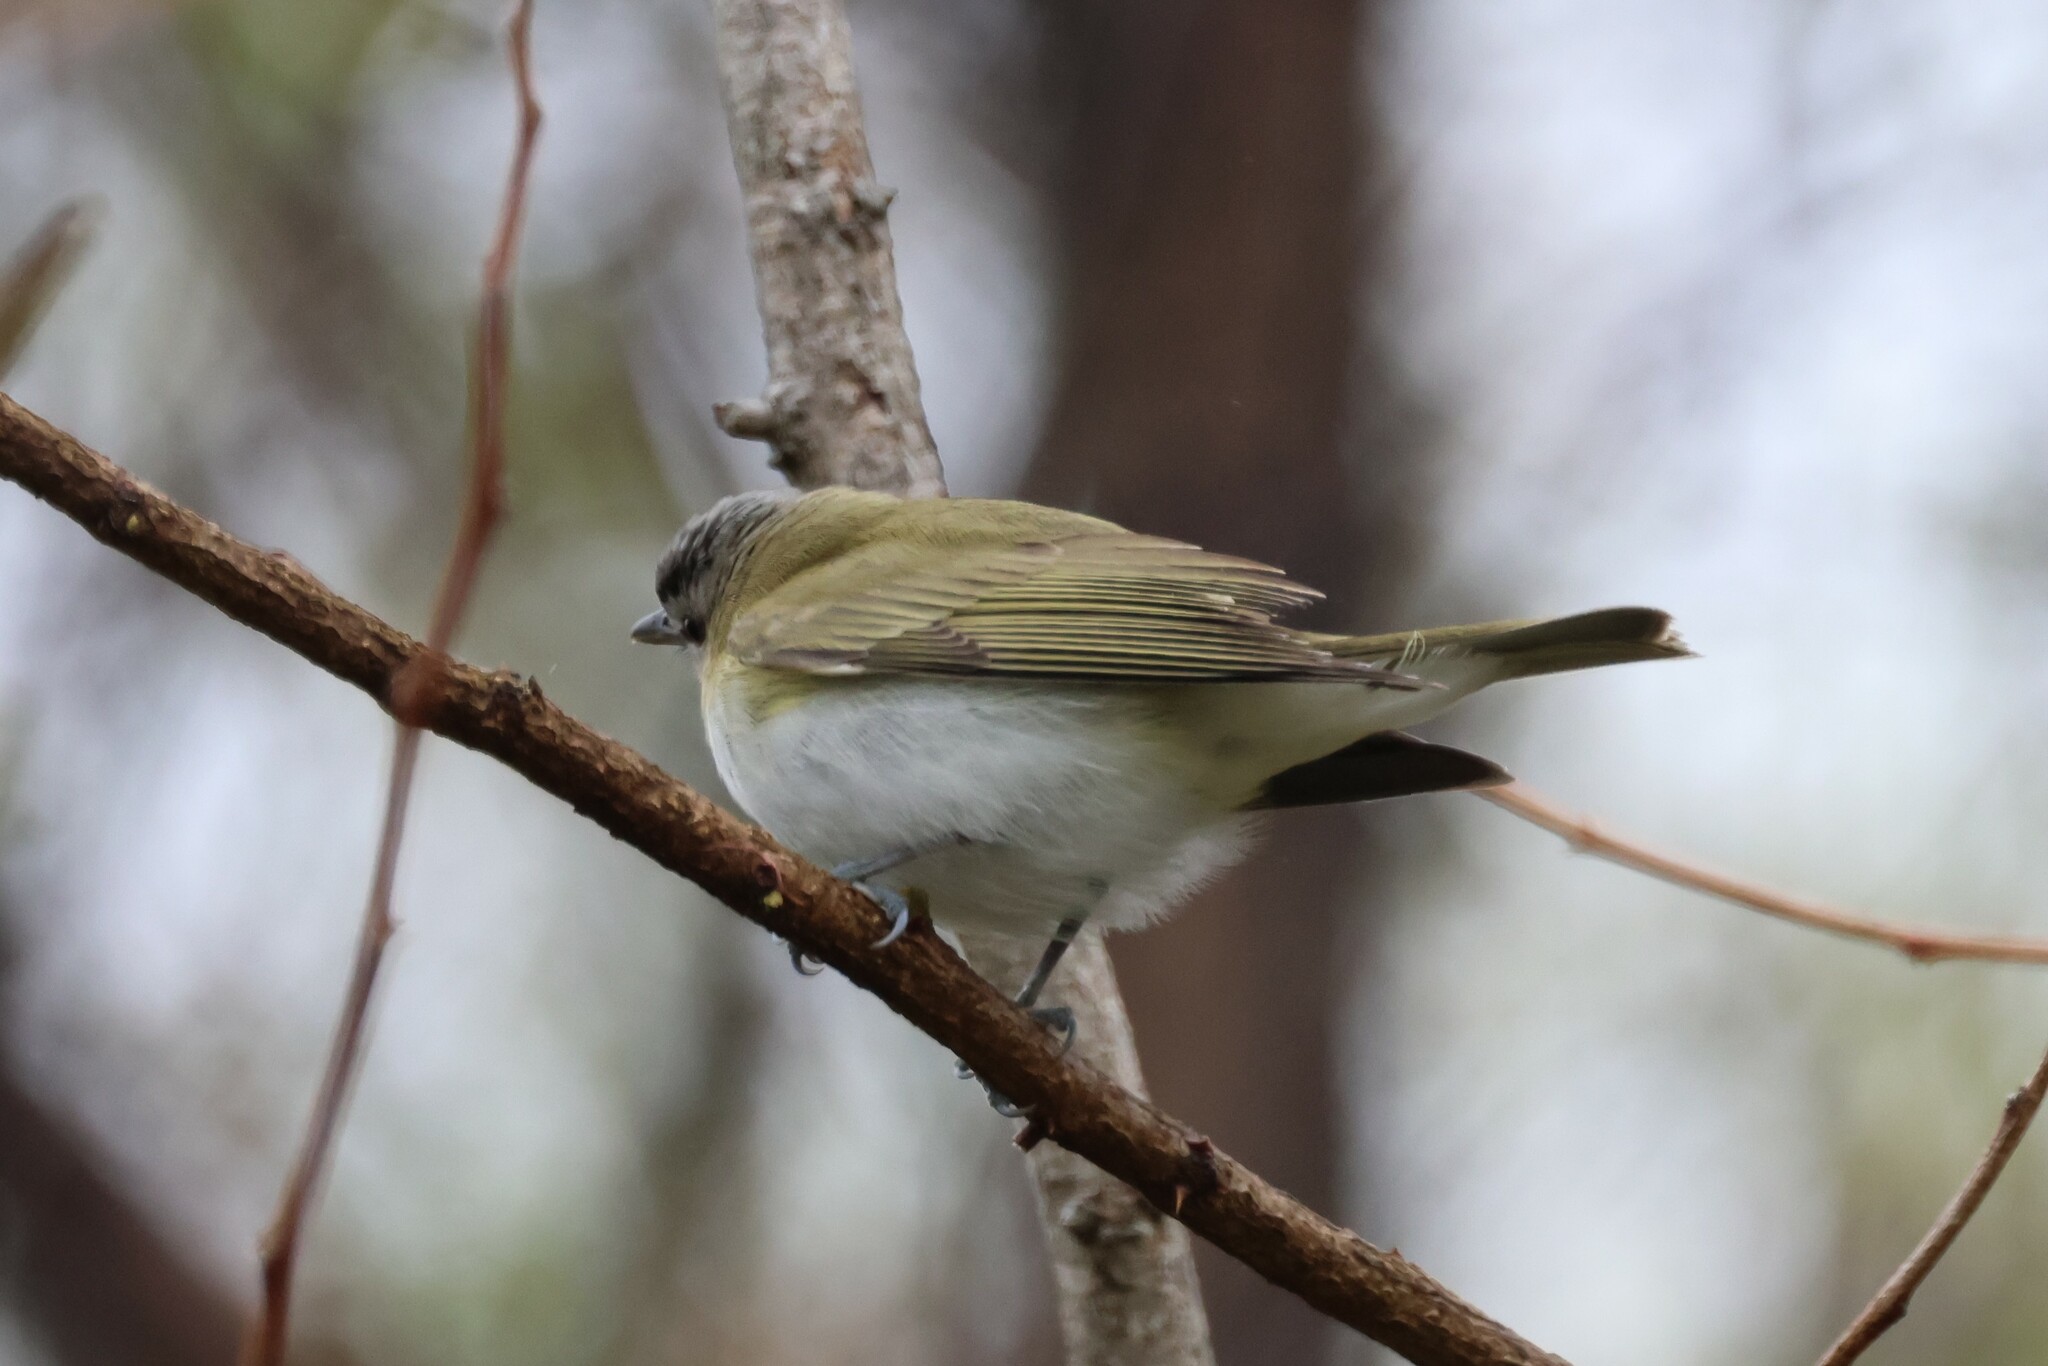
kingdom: Animalia
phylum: Chordata
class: Aves
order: Passeriformes
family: Vireonidae
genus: Vireo
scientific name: Vireo olivaceus
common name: Red-eyed vireo
